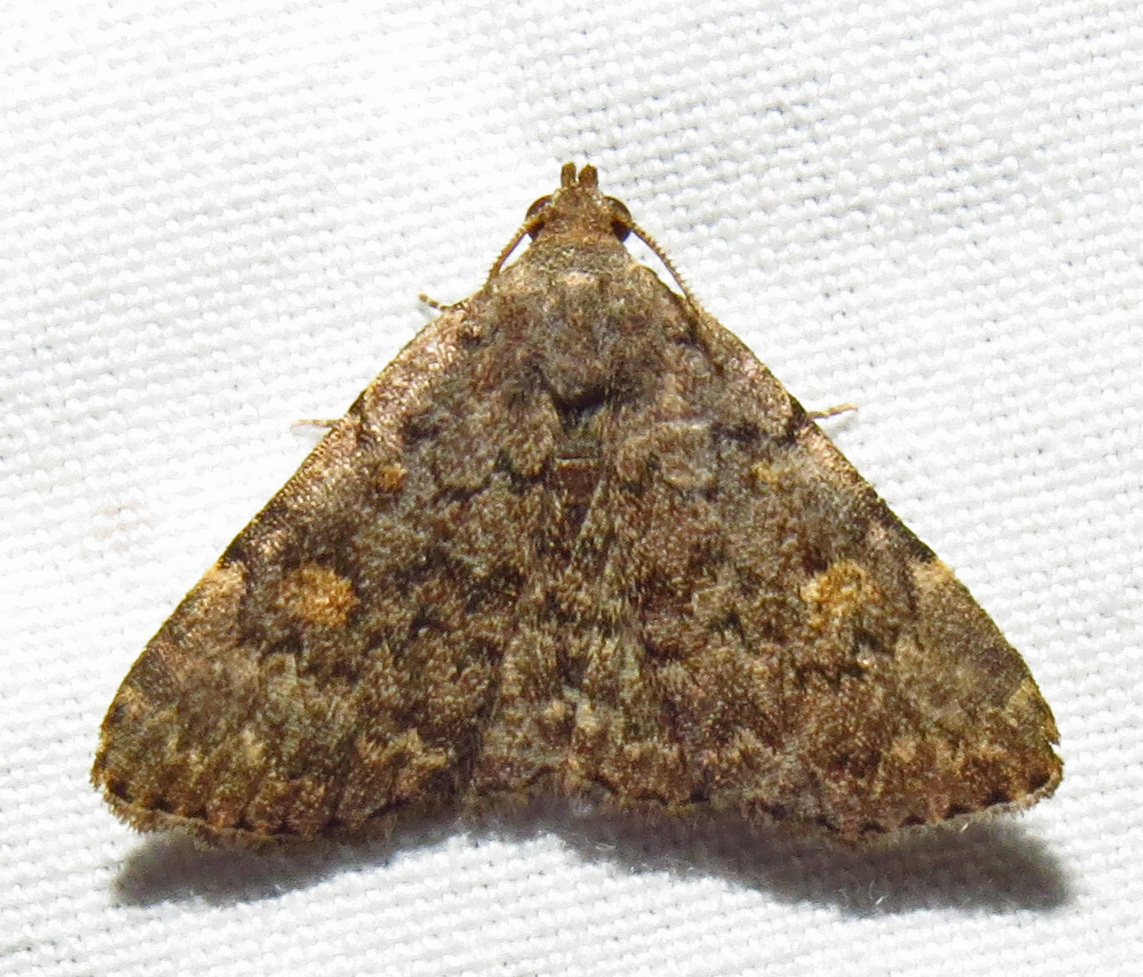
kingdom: Animalia
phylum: Arthropoda
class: Insecta
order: Lepidoptera
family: Erebidae
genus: Idia
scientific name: Idia aemula
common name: Common idia moth
